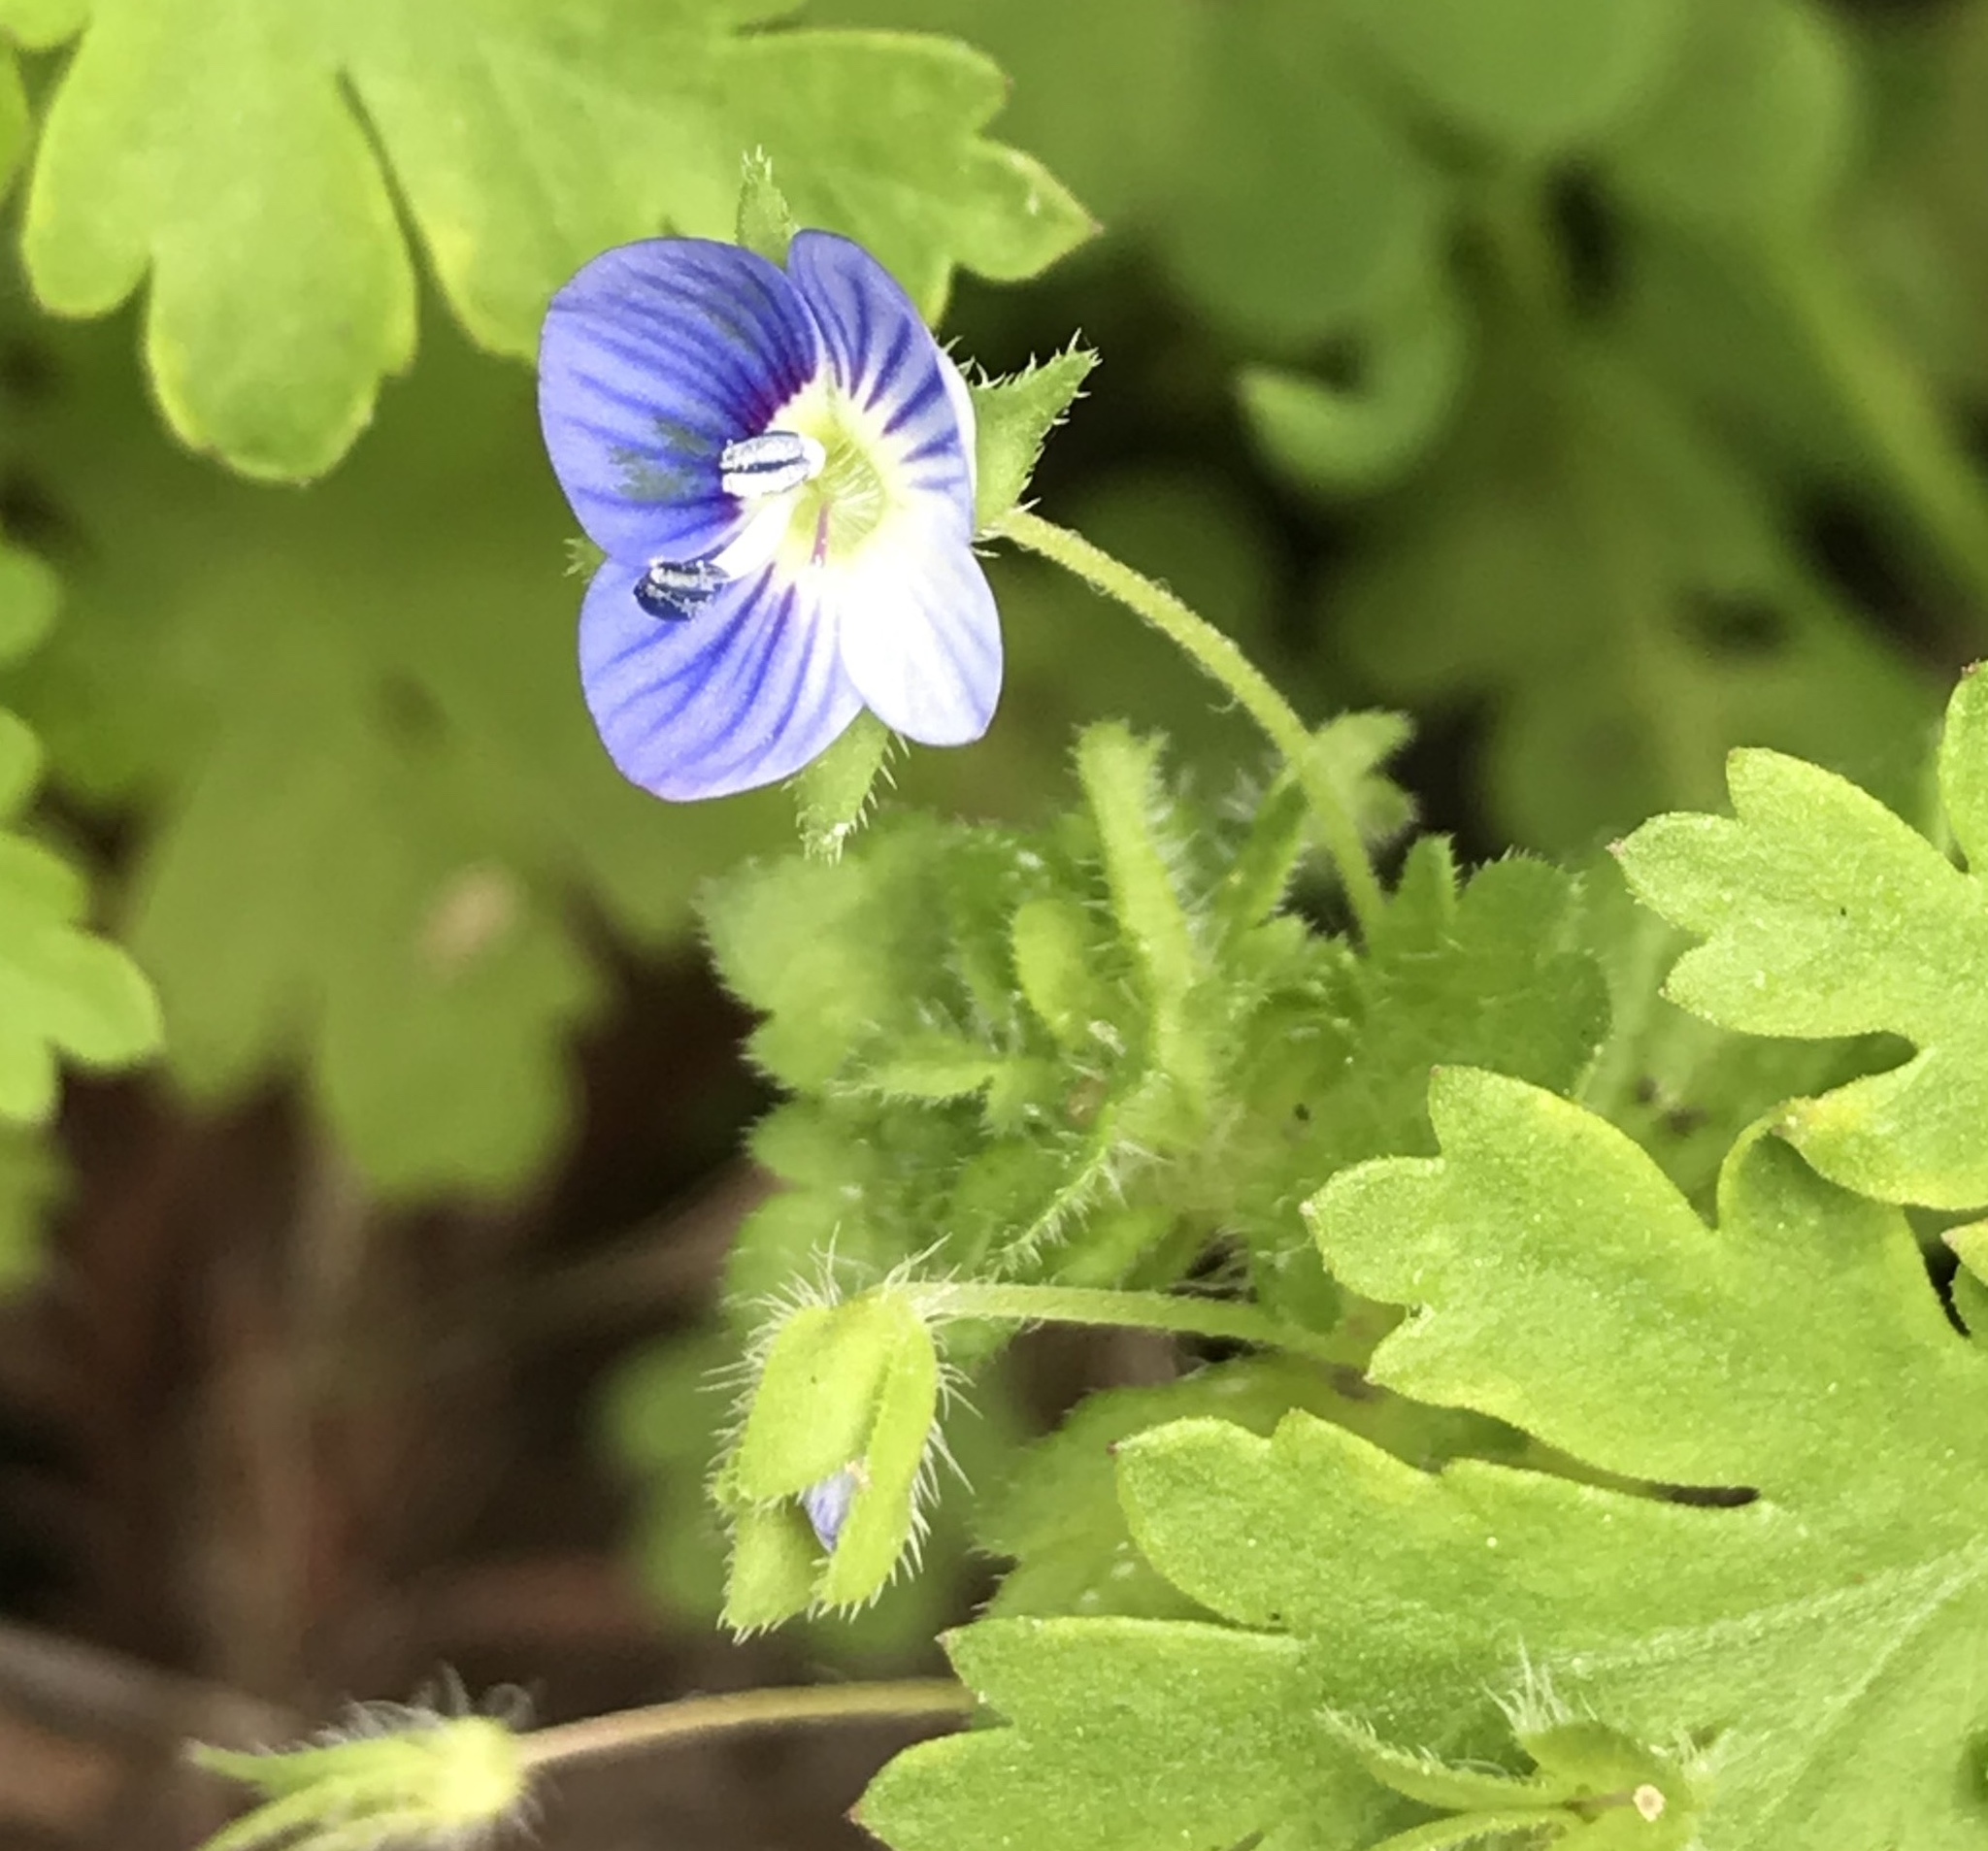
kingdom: Plantae
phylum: Tracheophyta
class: Magnoliopsida
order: Lamiales
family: Plantaginaceae
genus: Veronica
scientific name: Veronica persica
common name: Common field-speedwell
